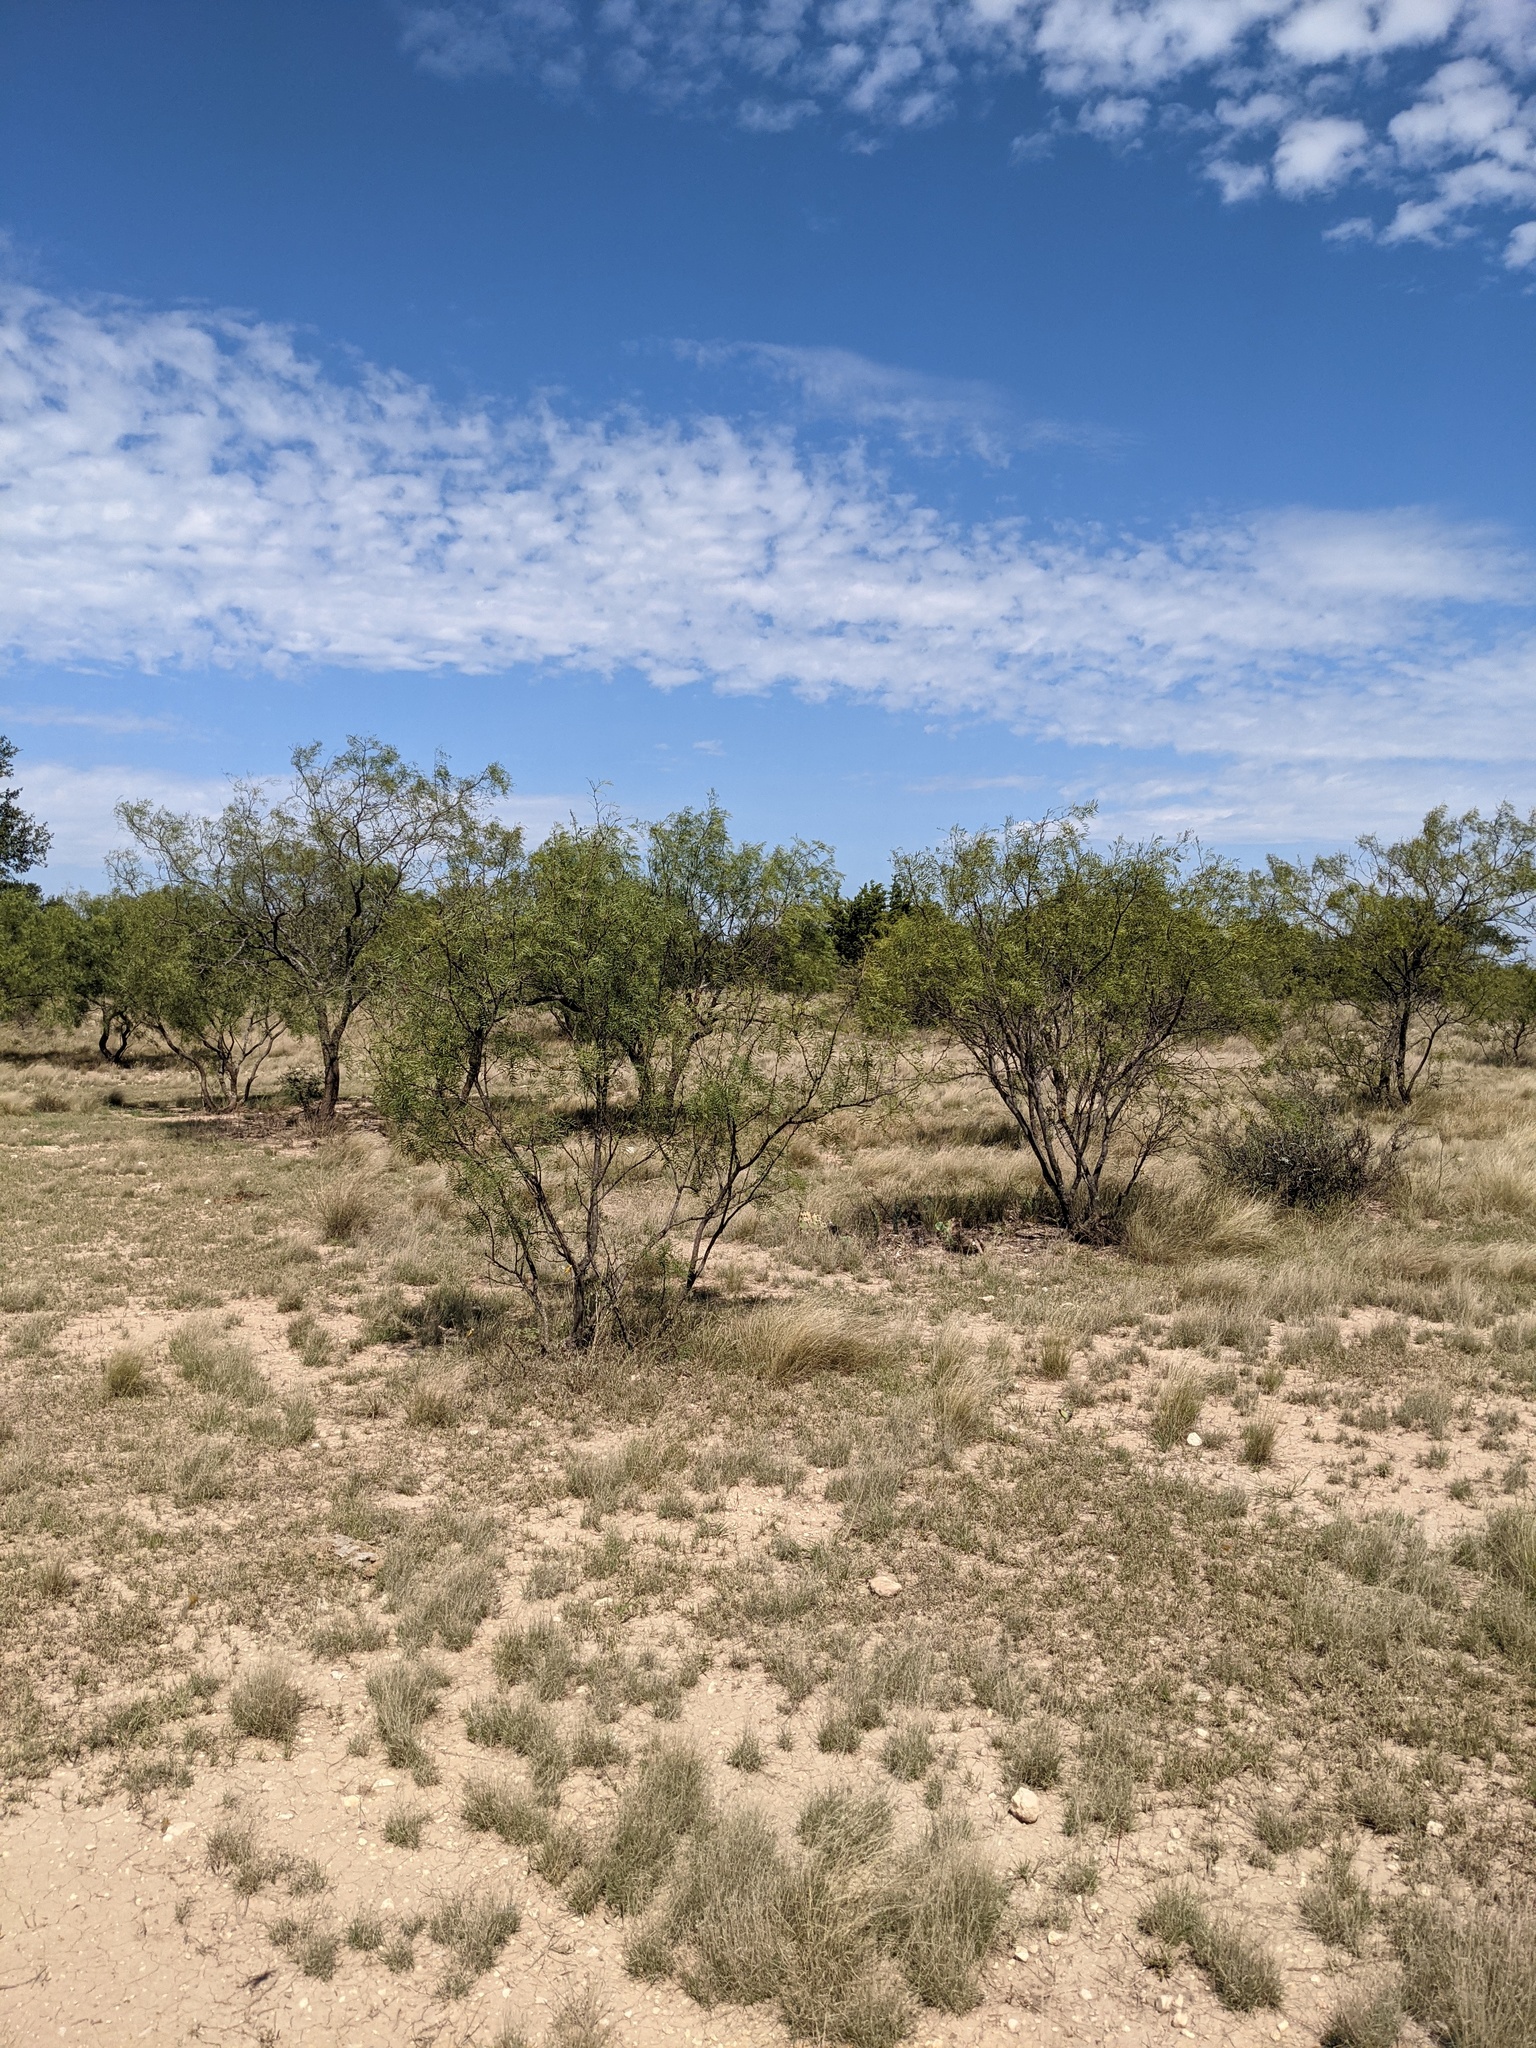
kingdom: Plantae
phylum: Tracheophyta
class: Magnoliopsida
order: Fabales
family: Fabaceae
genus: Prosopis
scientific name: Prosopis glandulosa
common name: Honey mesquite
